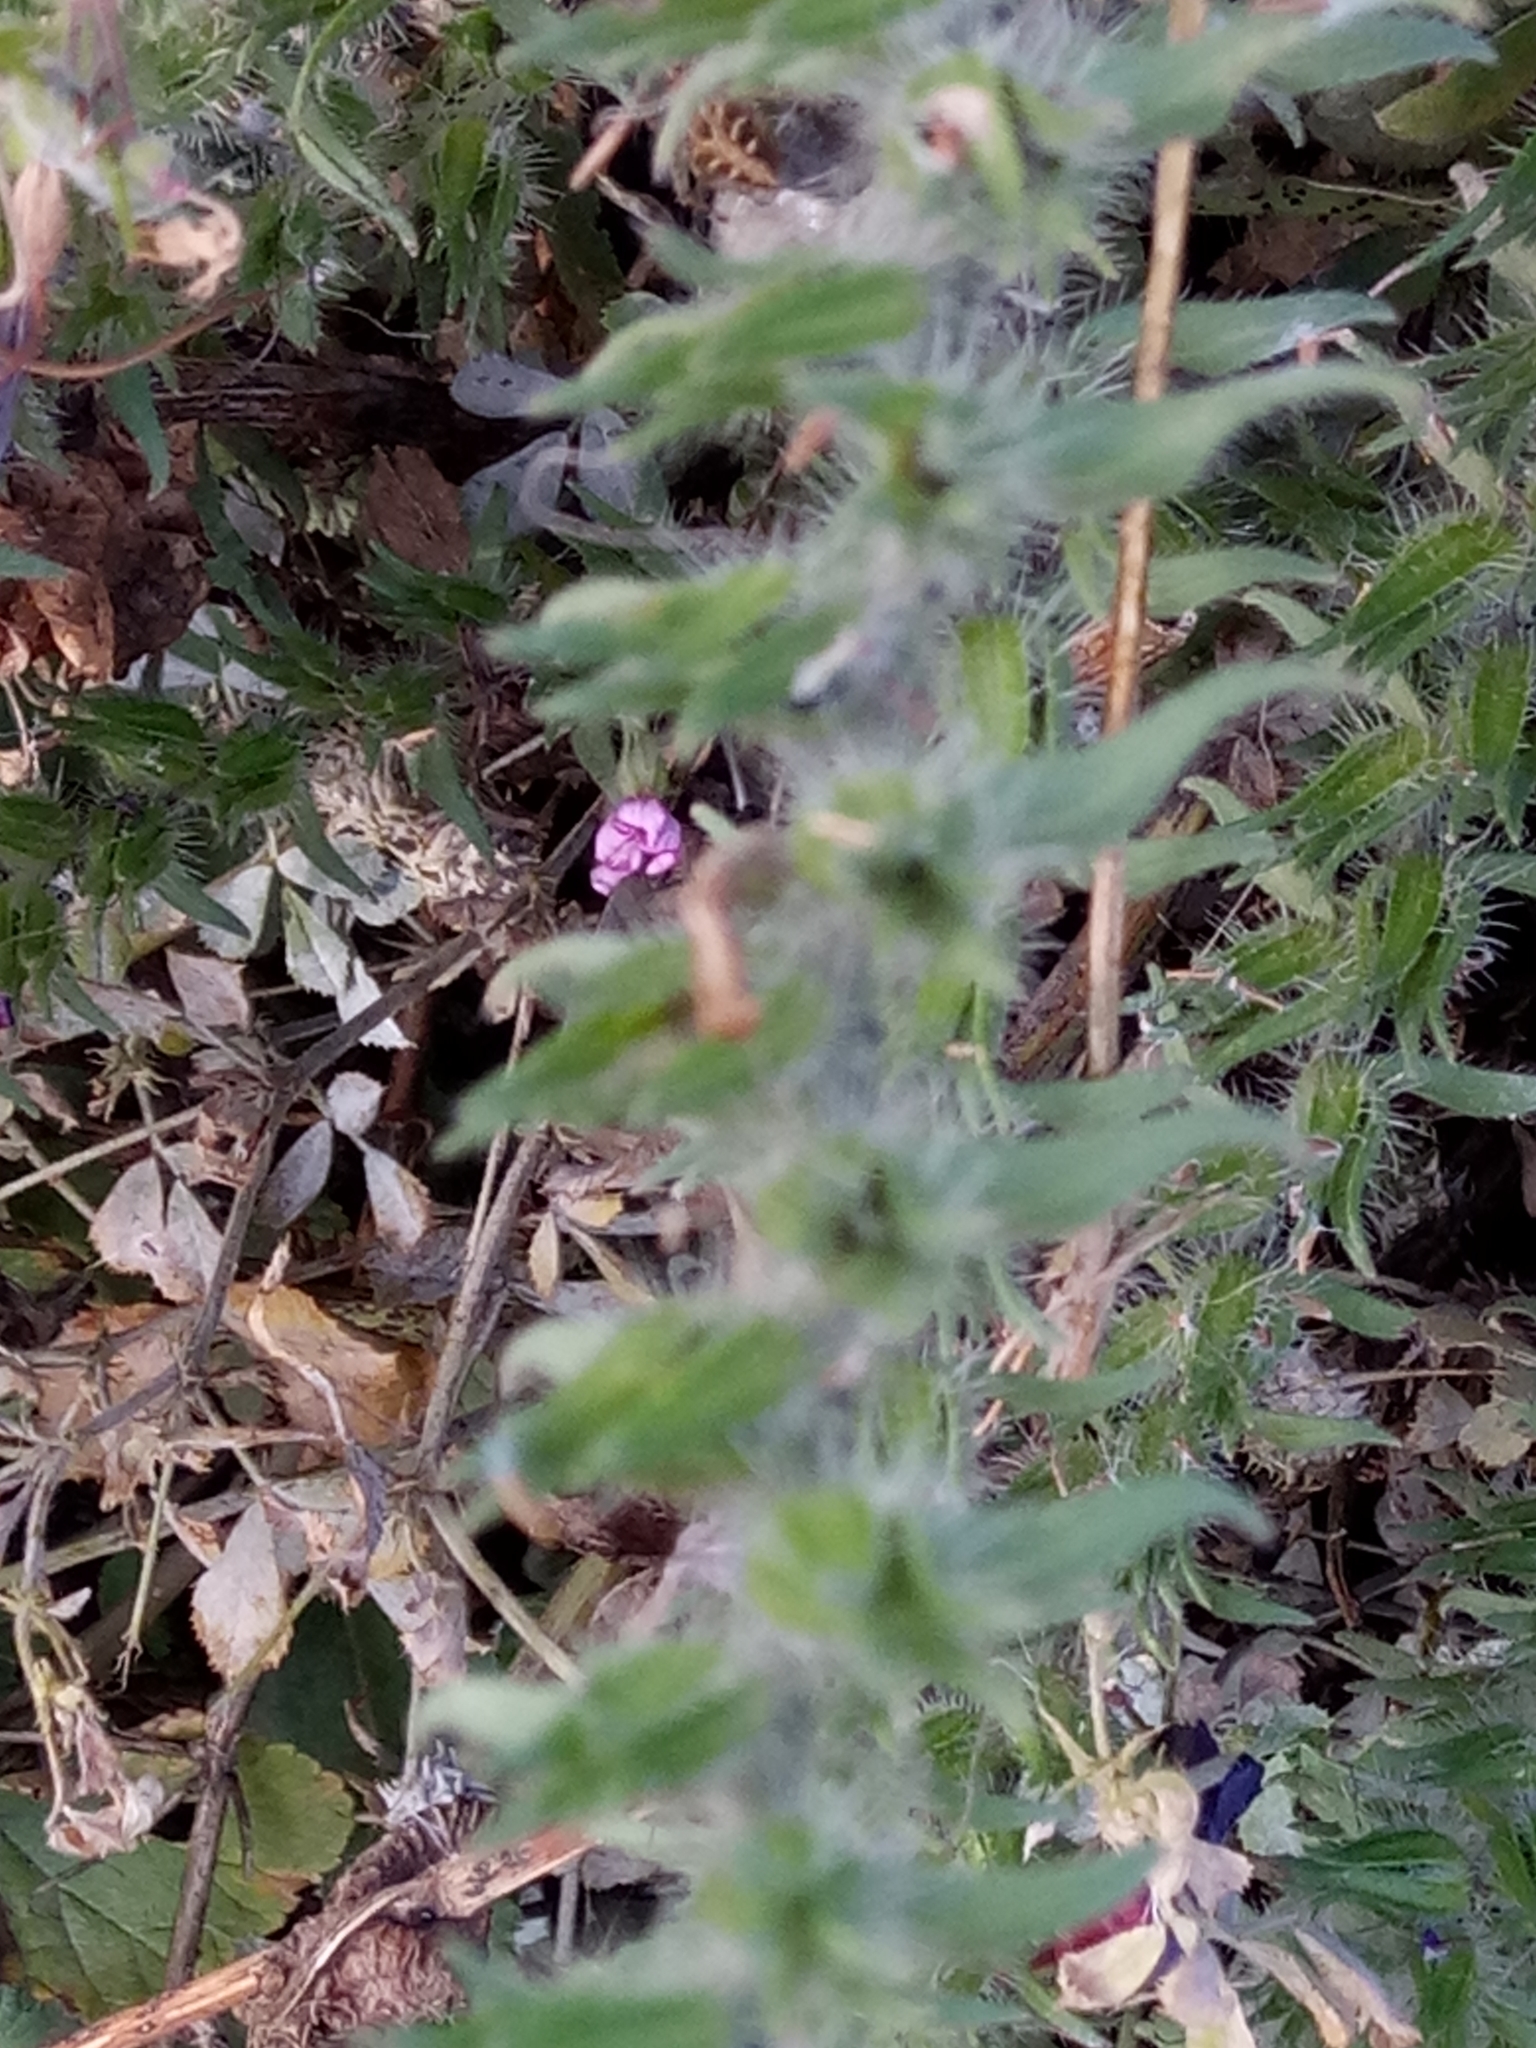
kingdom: Plantae
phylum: Tracheophyta
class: Magnoliopsida
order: Boraginales
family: Boraginaceae
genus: Echium
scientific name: Echium creticum
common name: Cretan viper's bugloss
